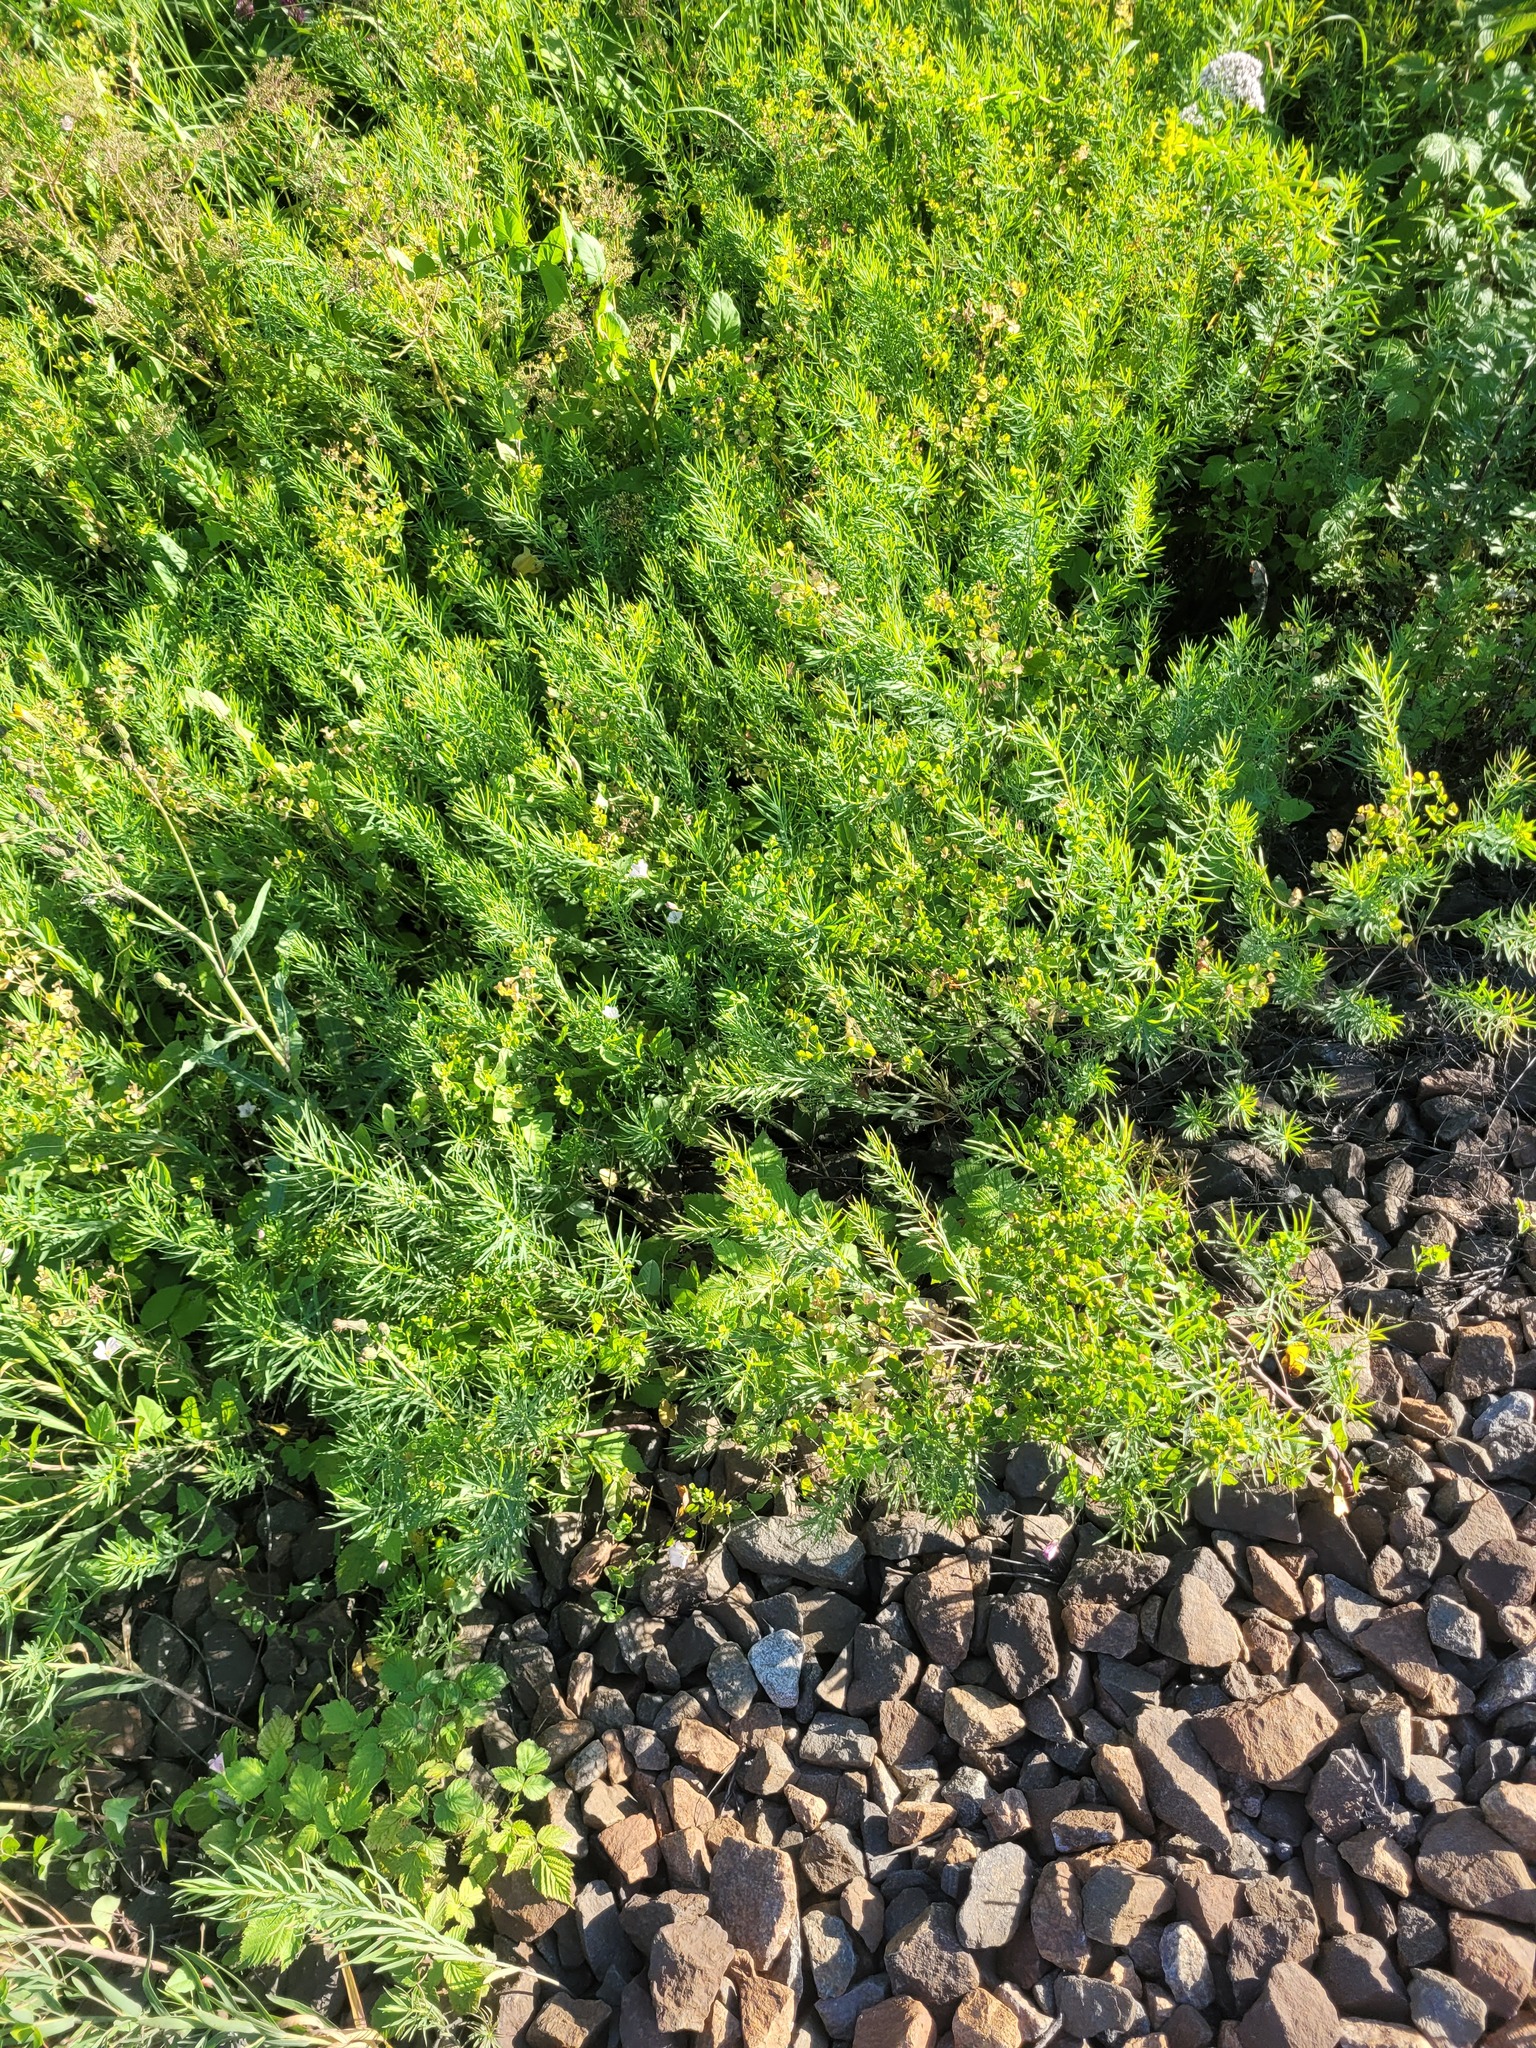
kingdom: Plantae
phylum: Tracheophyta
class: Magnoliopsida
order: Malpighiales
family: Euphorbiaceae
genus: Euphorbia
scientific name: Euphorbia virgata
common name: Leafy spurge
